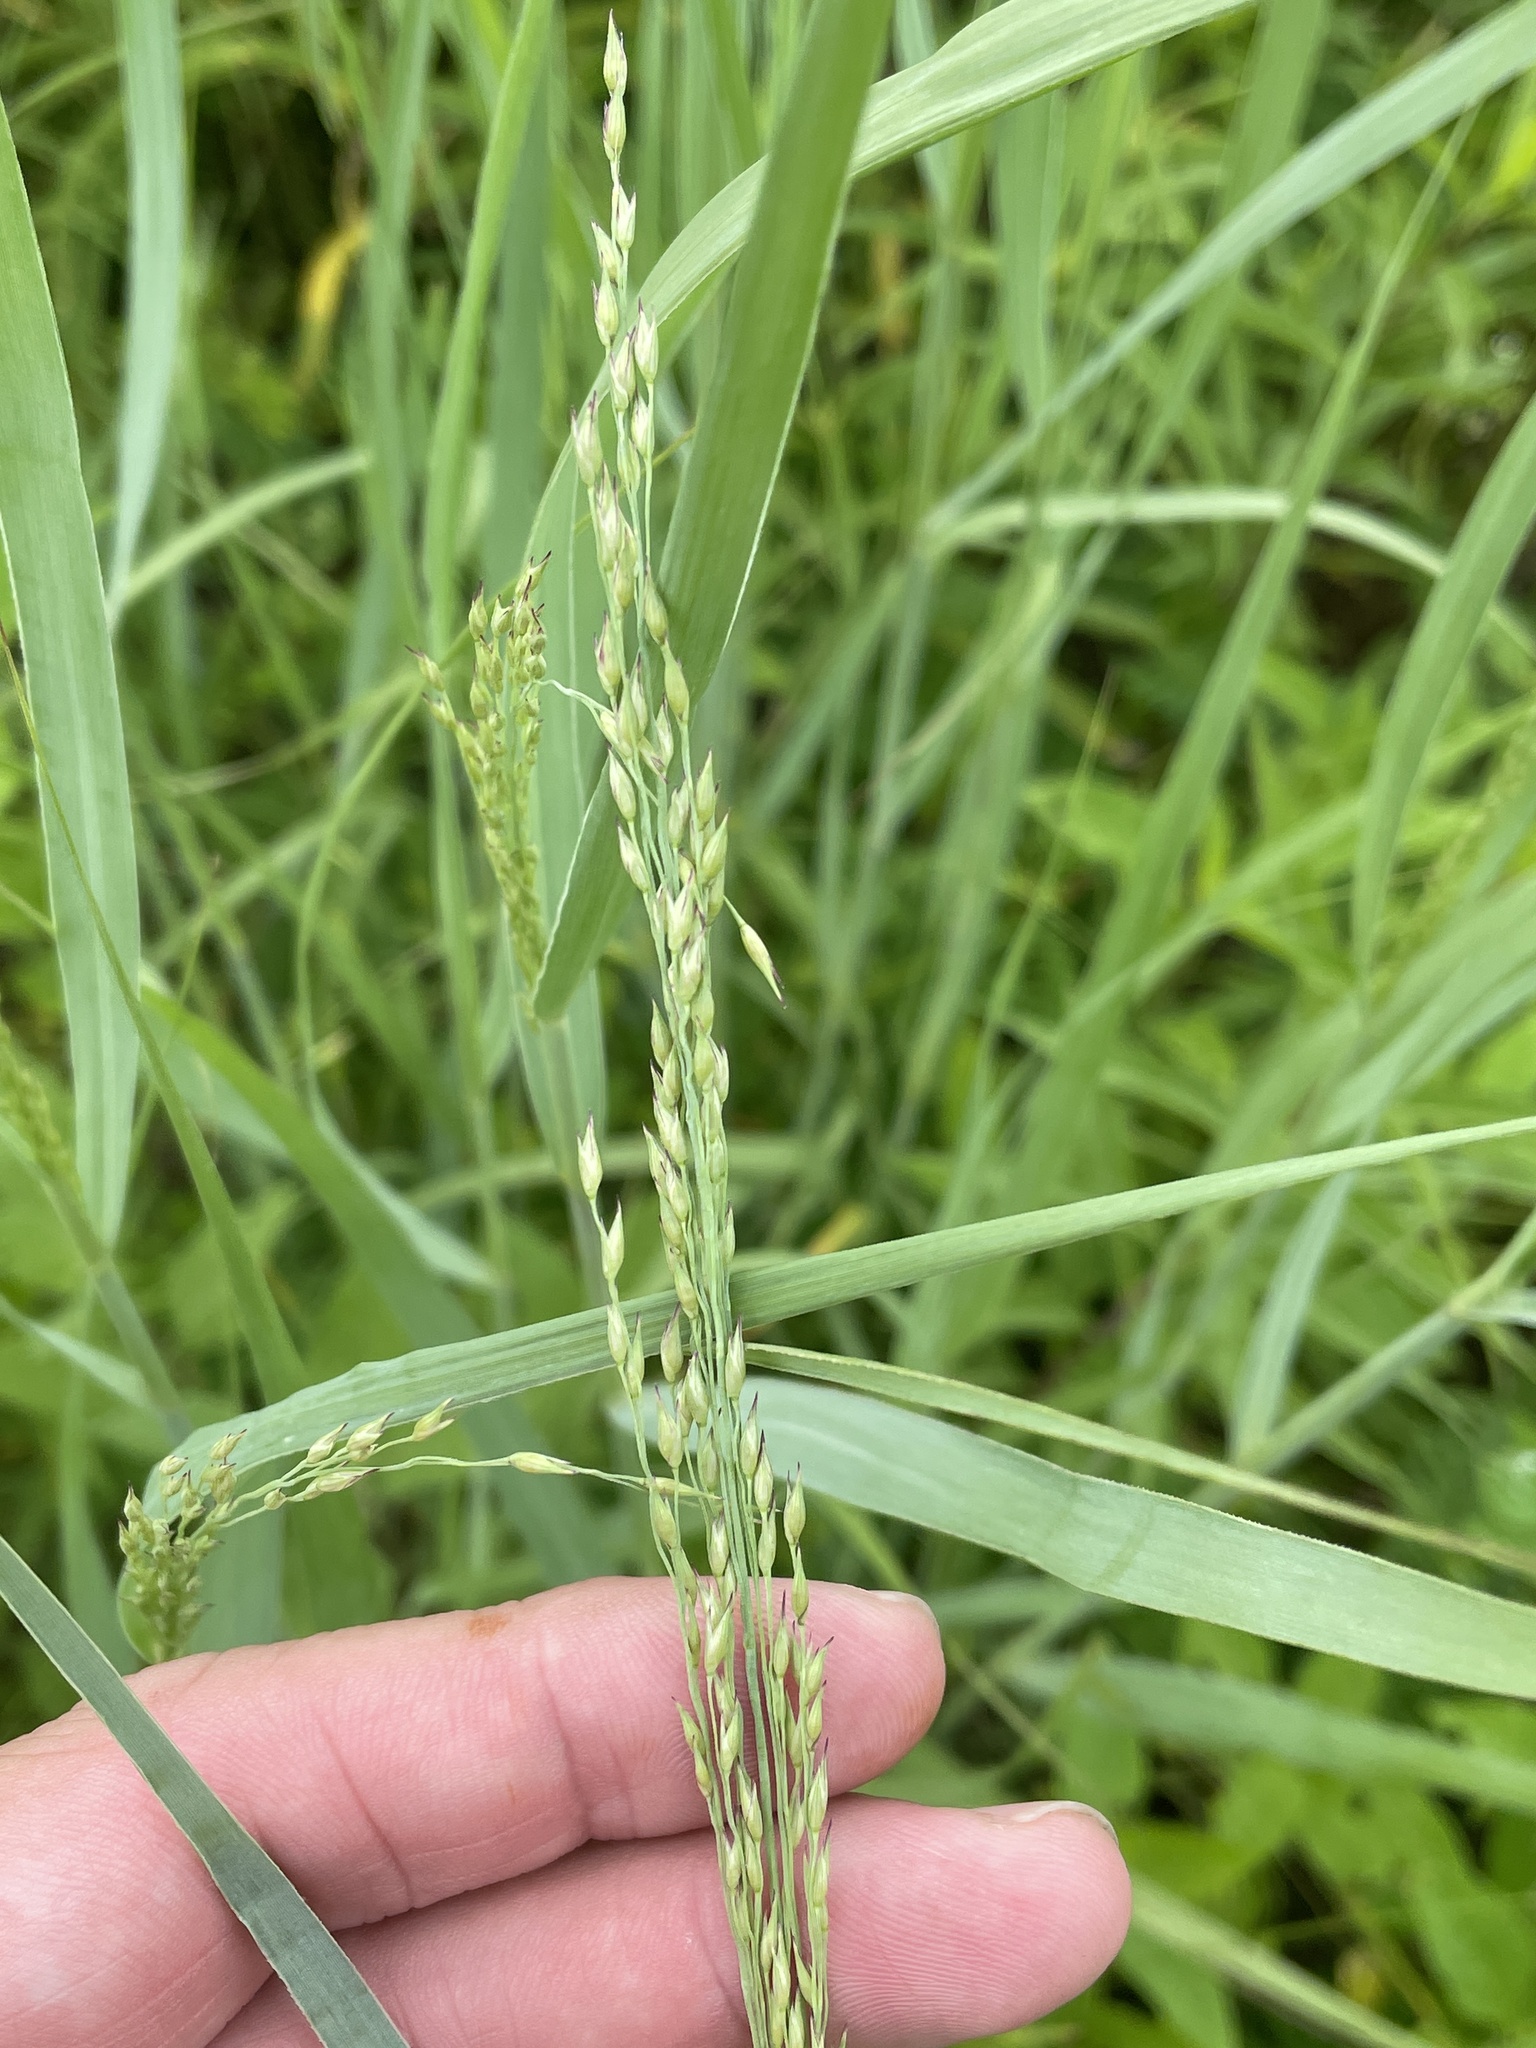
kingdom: Plantae
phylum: Tracheophyta
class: Liliopsida
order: Poales
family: Poaceae
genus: Panicum
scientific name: Panicum virgatum
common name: Switchgrass
